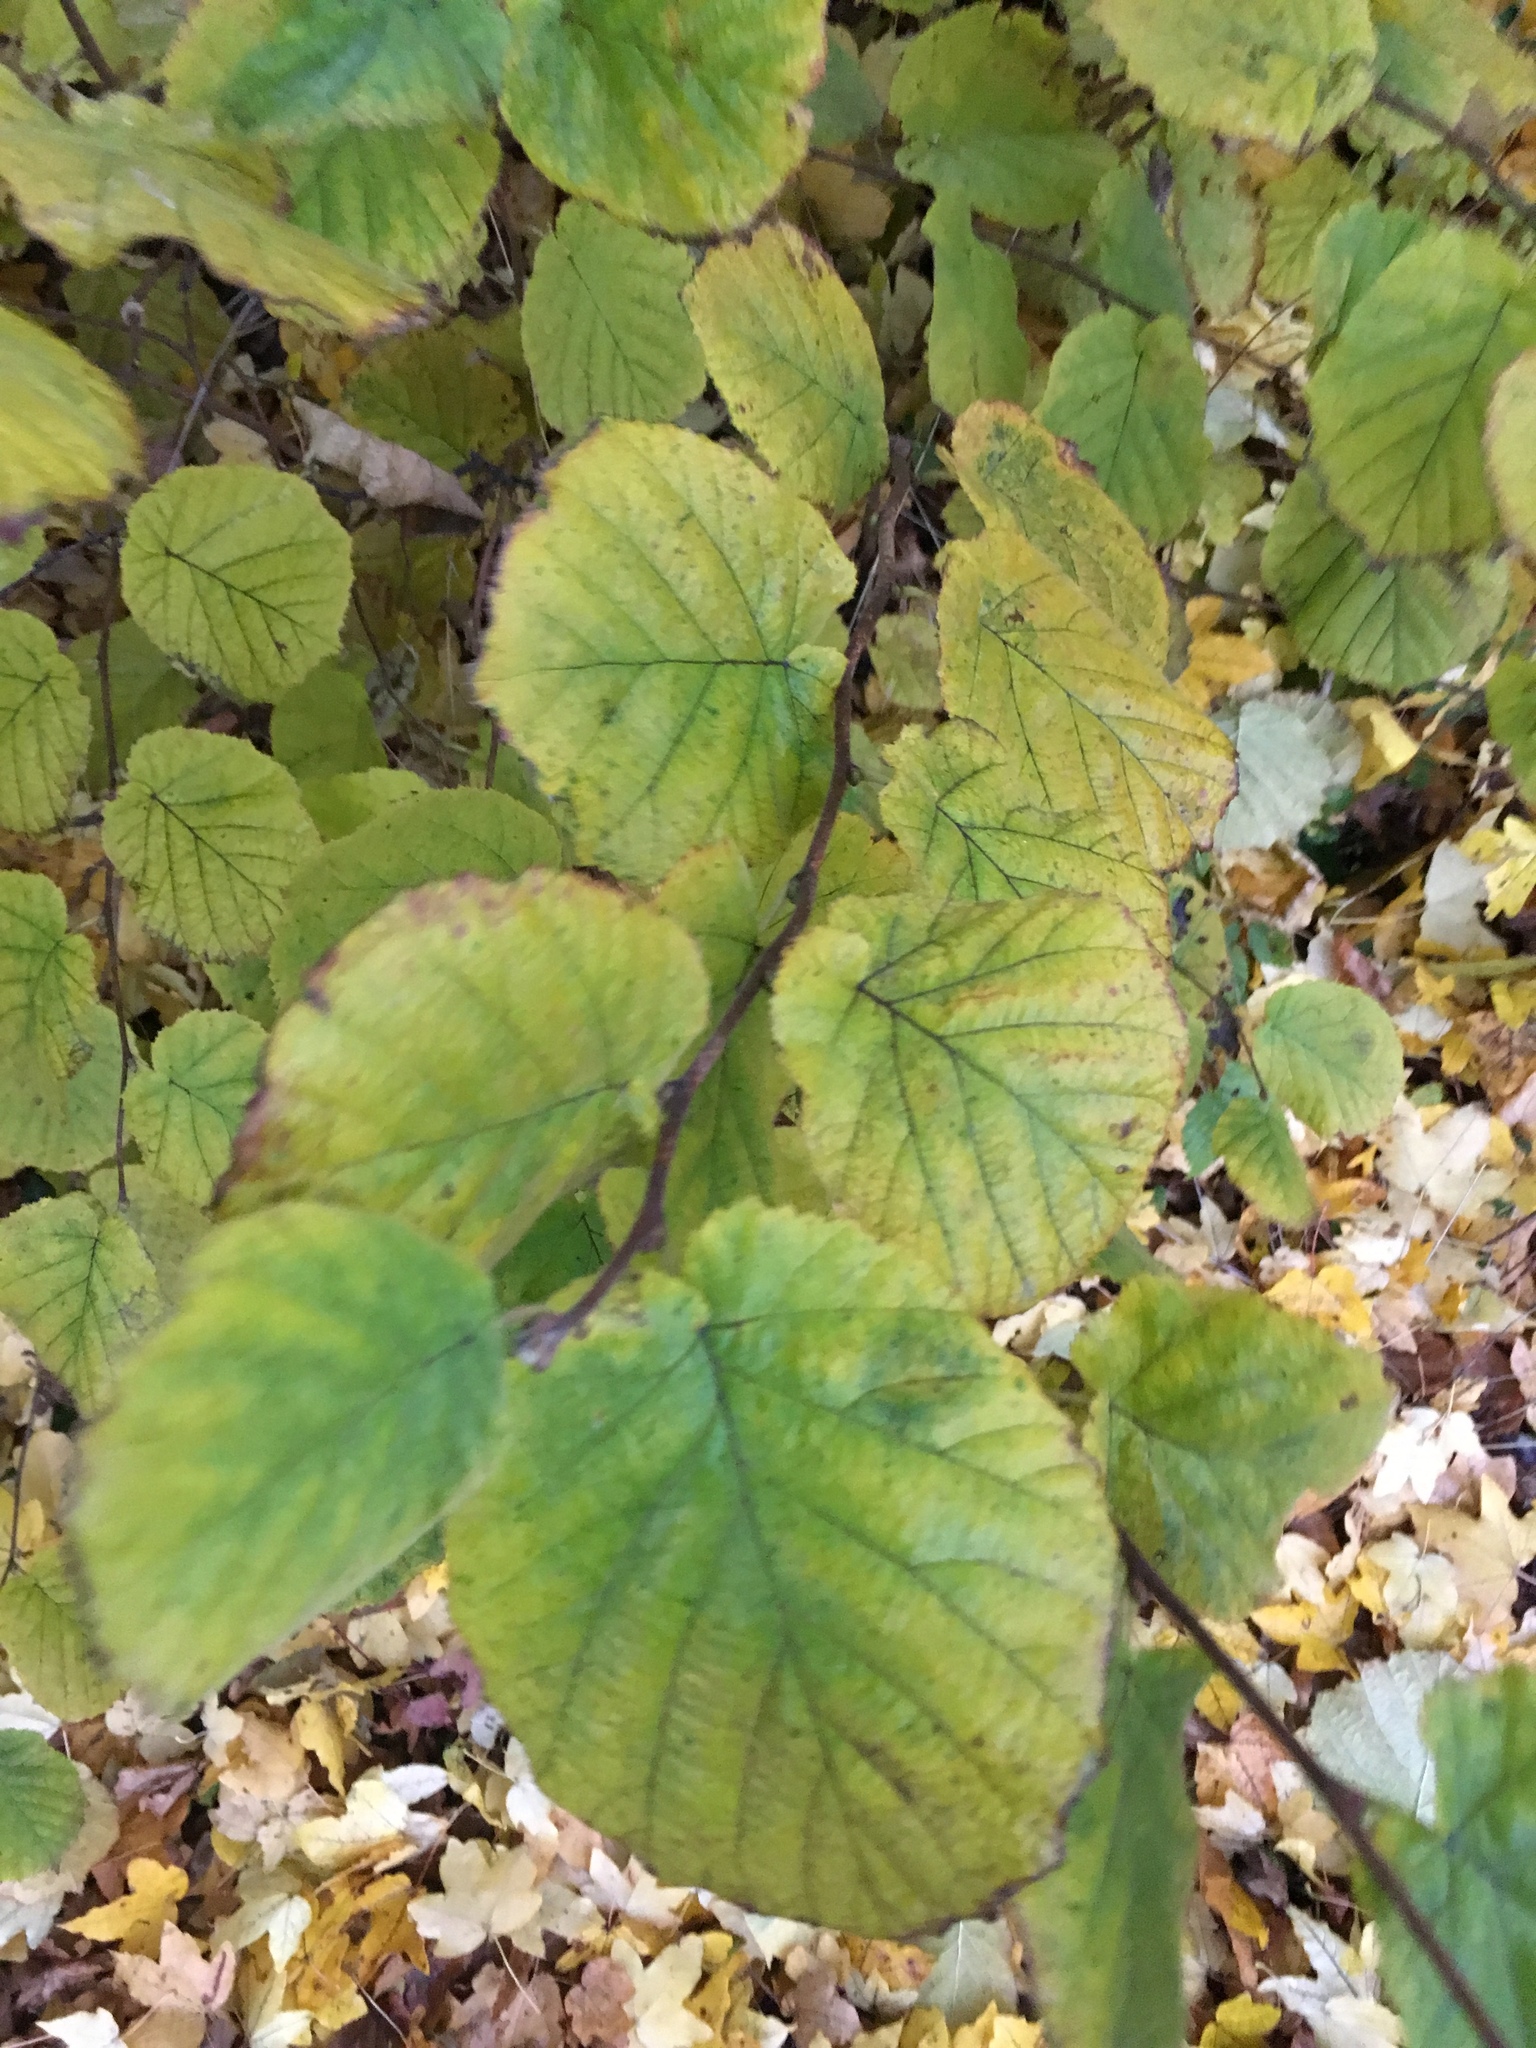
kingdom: Plantae
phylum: Tracheophyta
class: Magnoliopsida
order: Fagales
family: Betulaceae
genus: Corylus
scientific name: Corylus avellana
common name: European hazel
